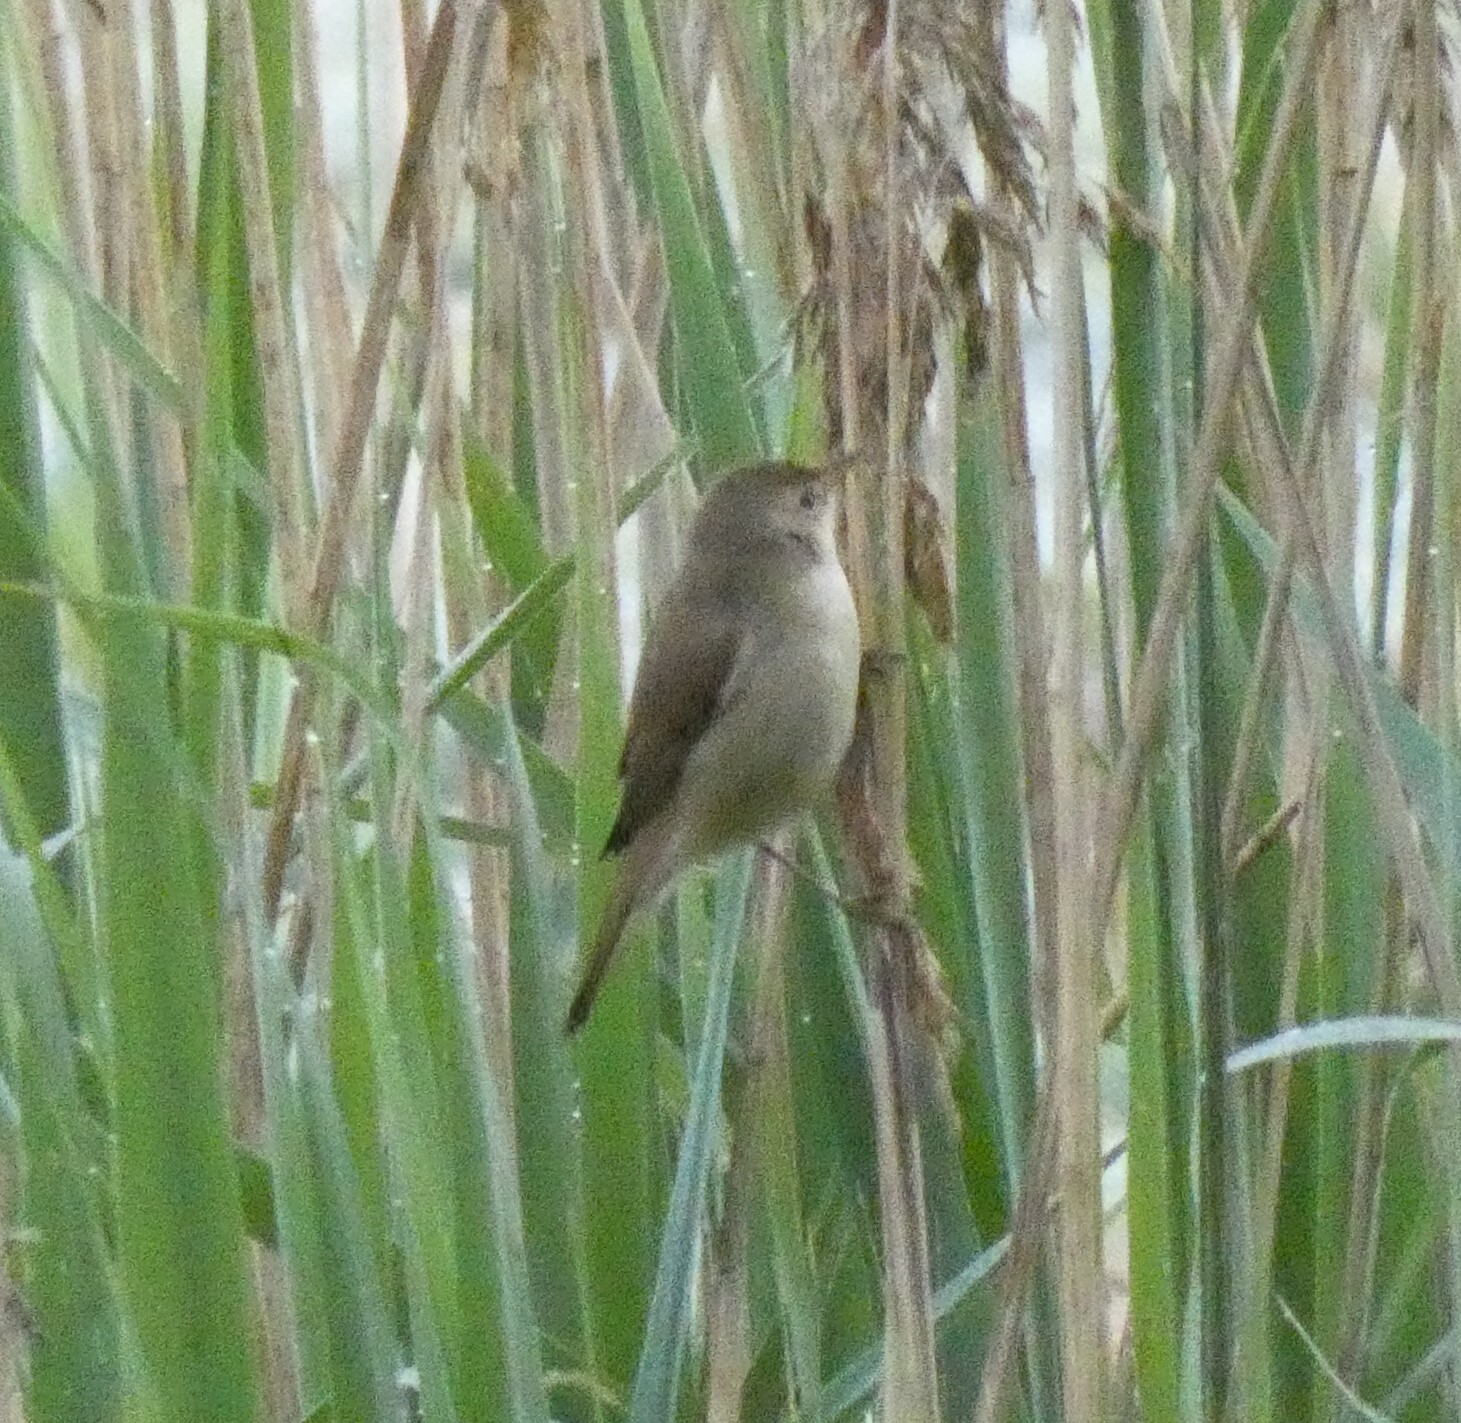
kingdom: Animalia
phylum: Chordata
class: Aves
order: Passeriformes
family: Acrocephalidae
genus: Acrocephalus
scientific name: Acrocephalus scirpaceus
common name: Eurasian reed warbler
